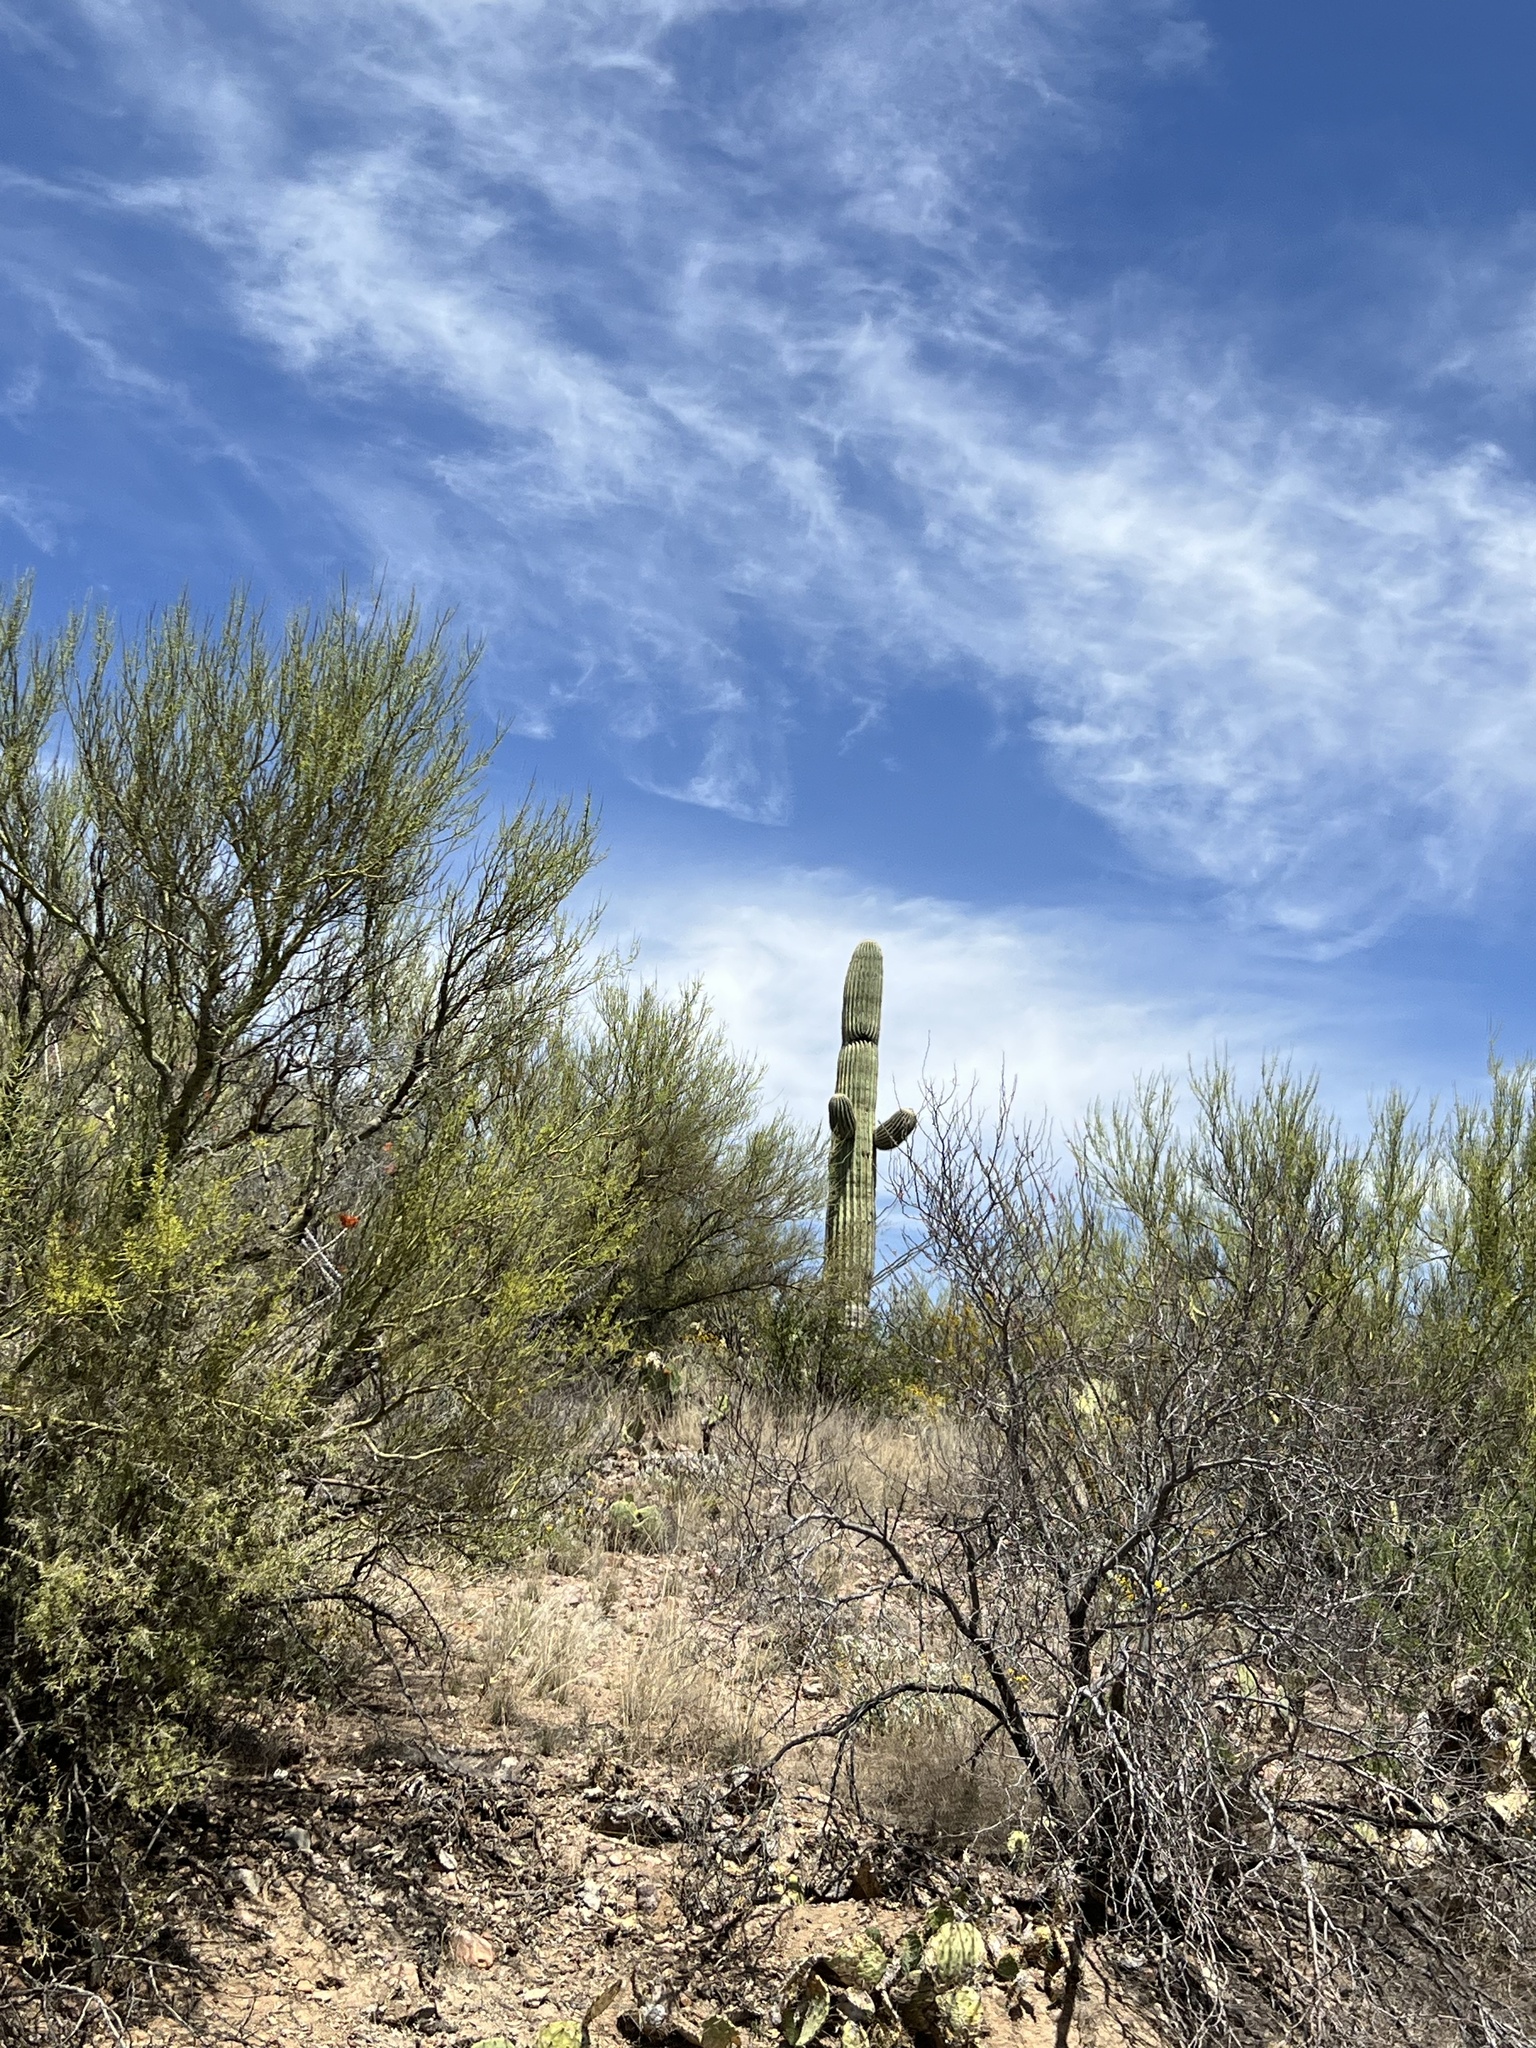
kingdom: Plantae
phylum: Tracheophyta
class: Magnoliopsida
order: Caryophyllales
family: Cactaceae
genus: Carnegiea
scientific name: Carnegiea gigantea
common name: Saguaro
